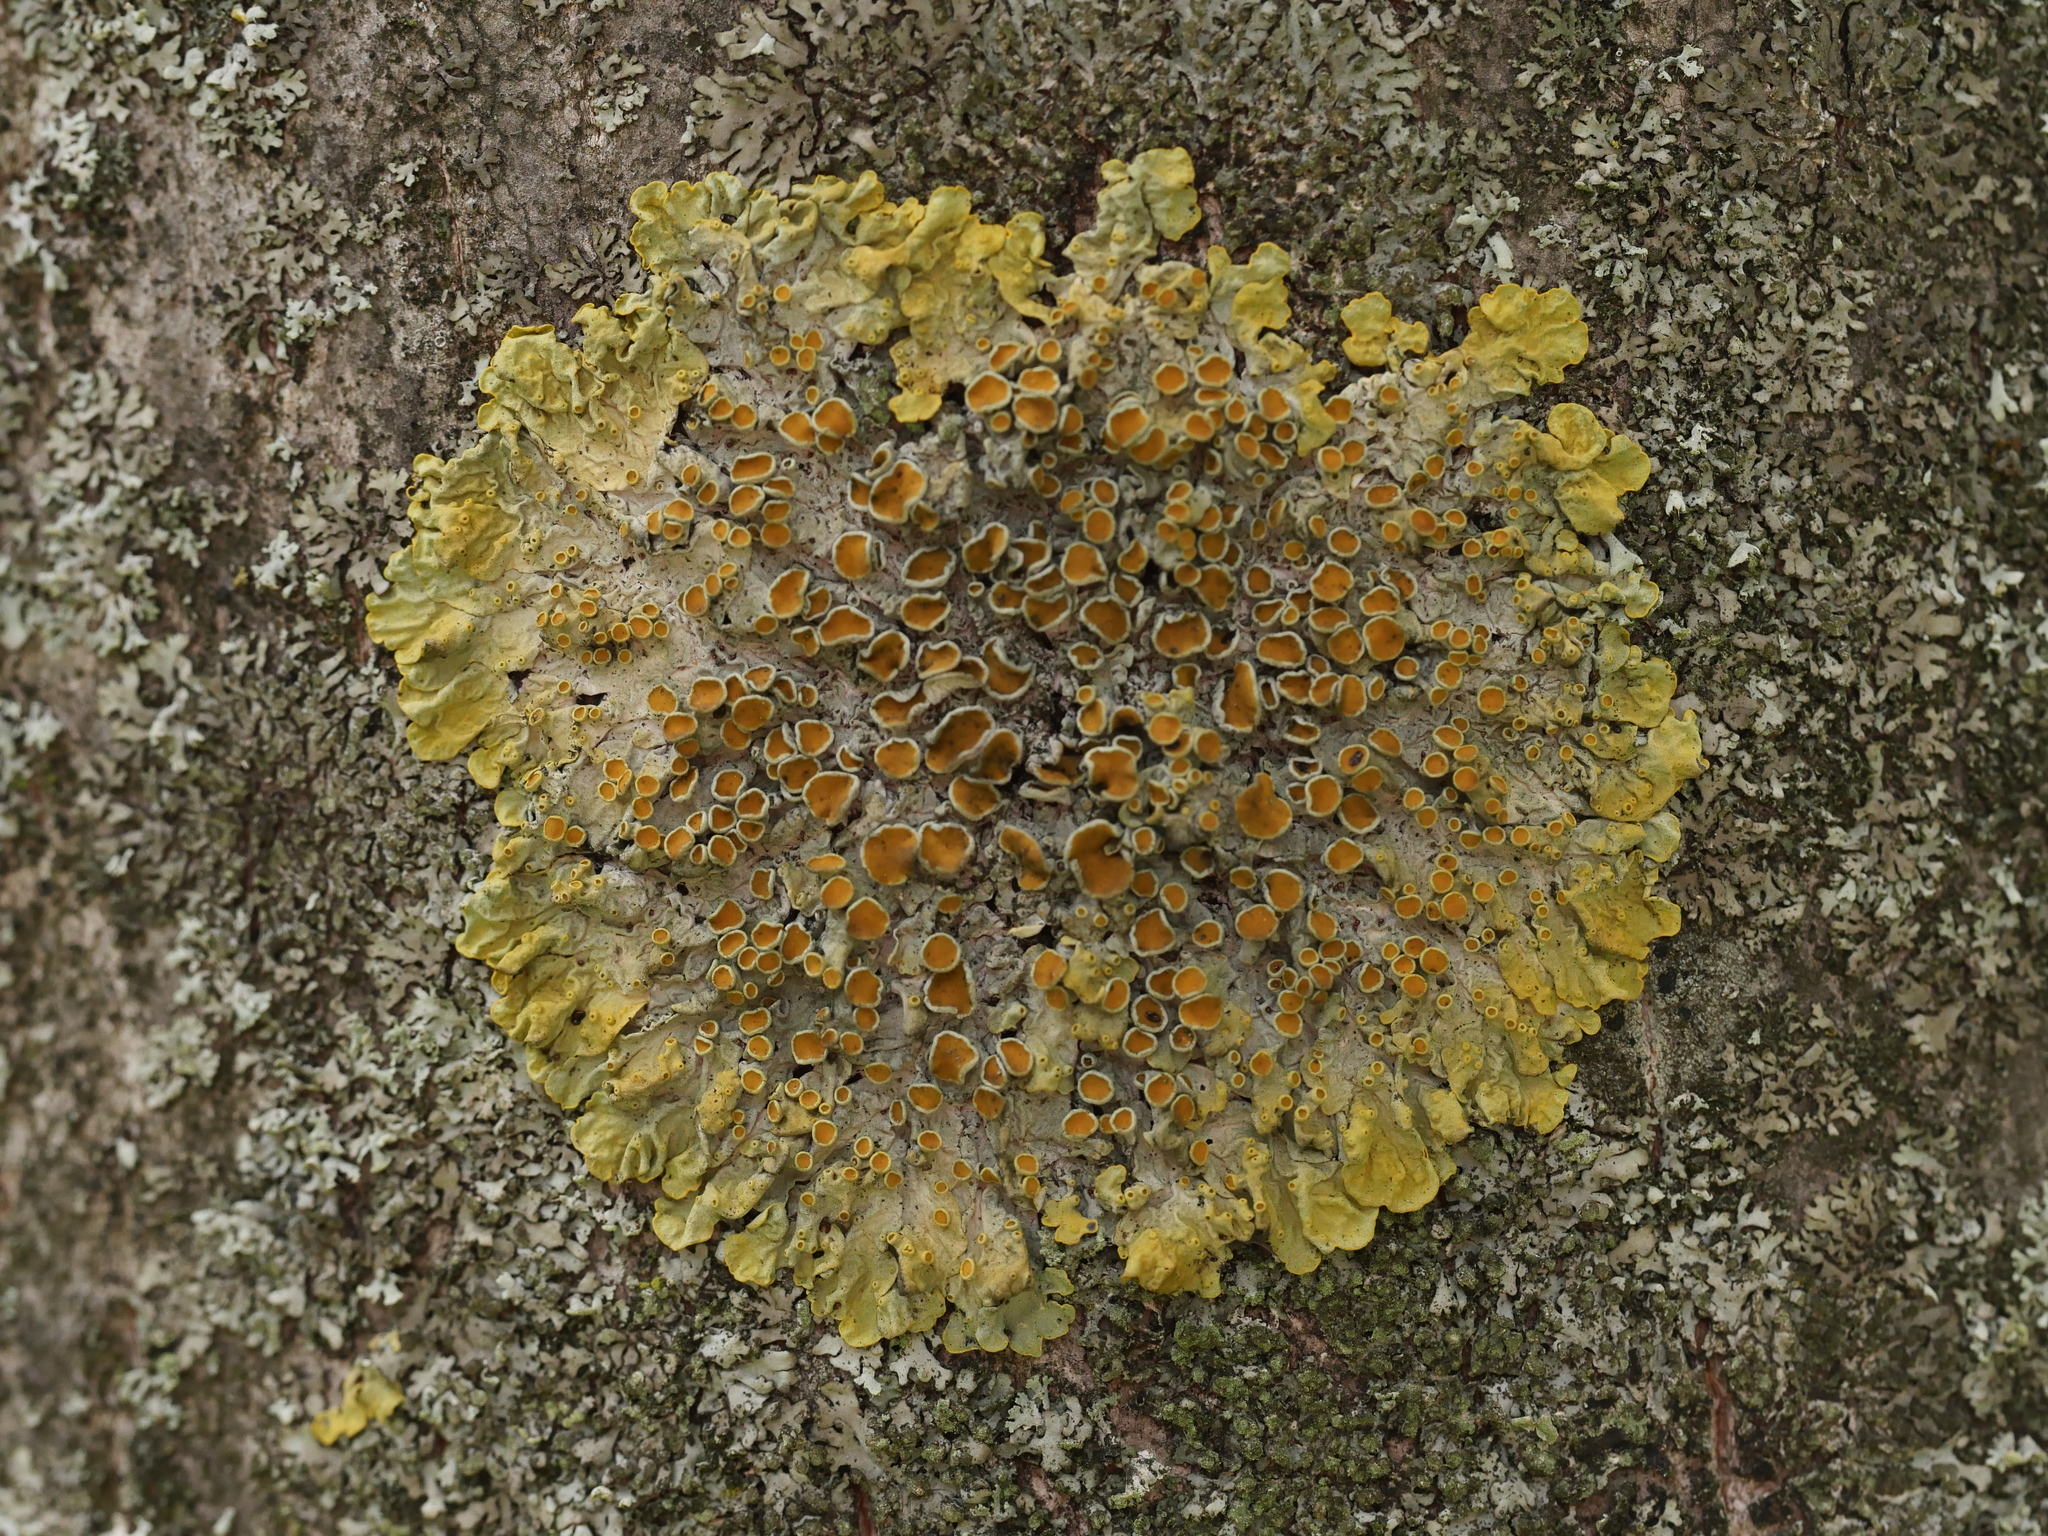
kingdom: Fungi
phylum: Ascomycota
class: Lecanoromycetes
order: Teloschistales
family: Teloschistaceae
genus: Xanthoria
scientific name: Xanthoria parietina
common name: Common orange lichen
